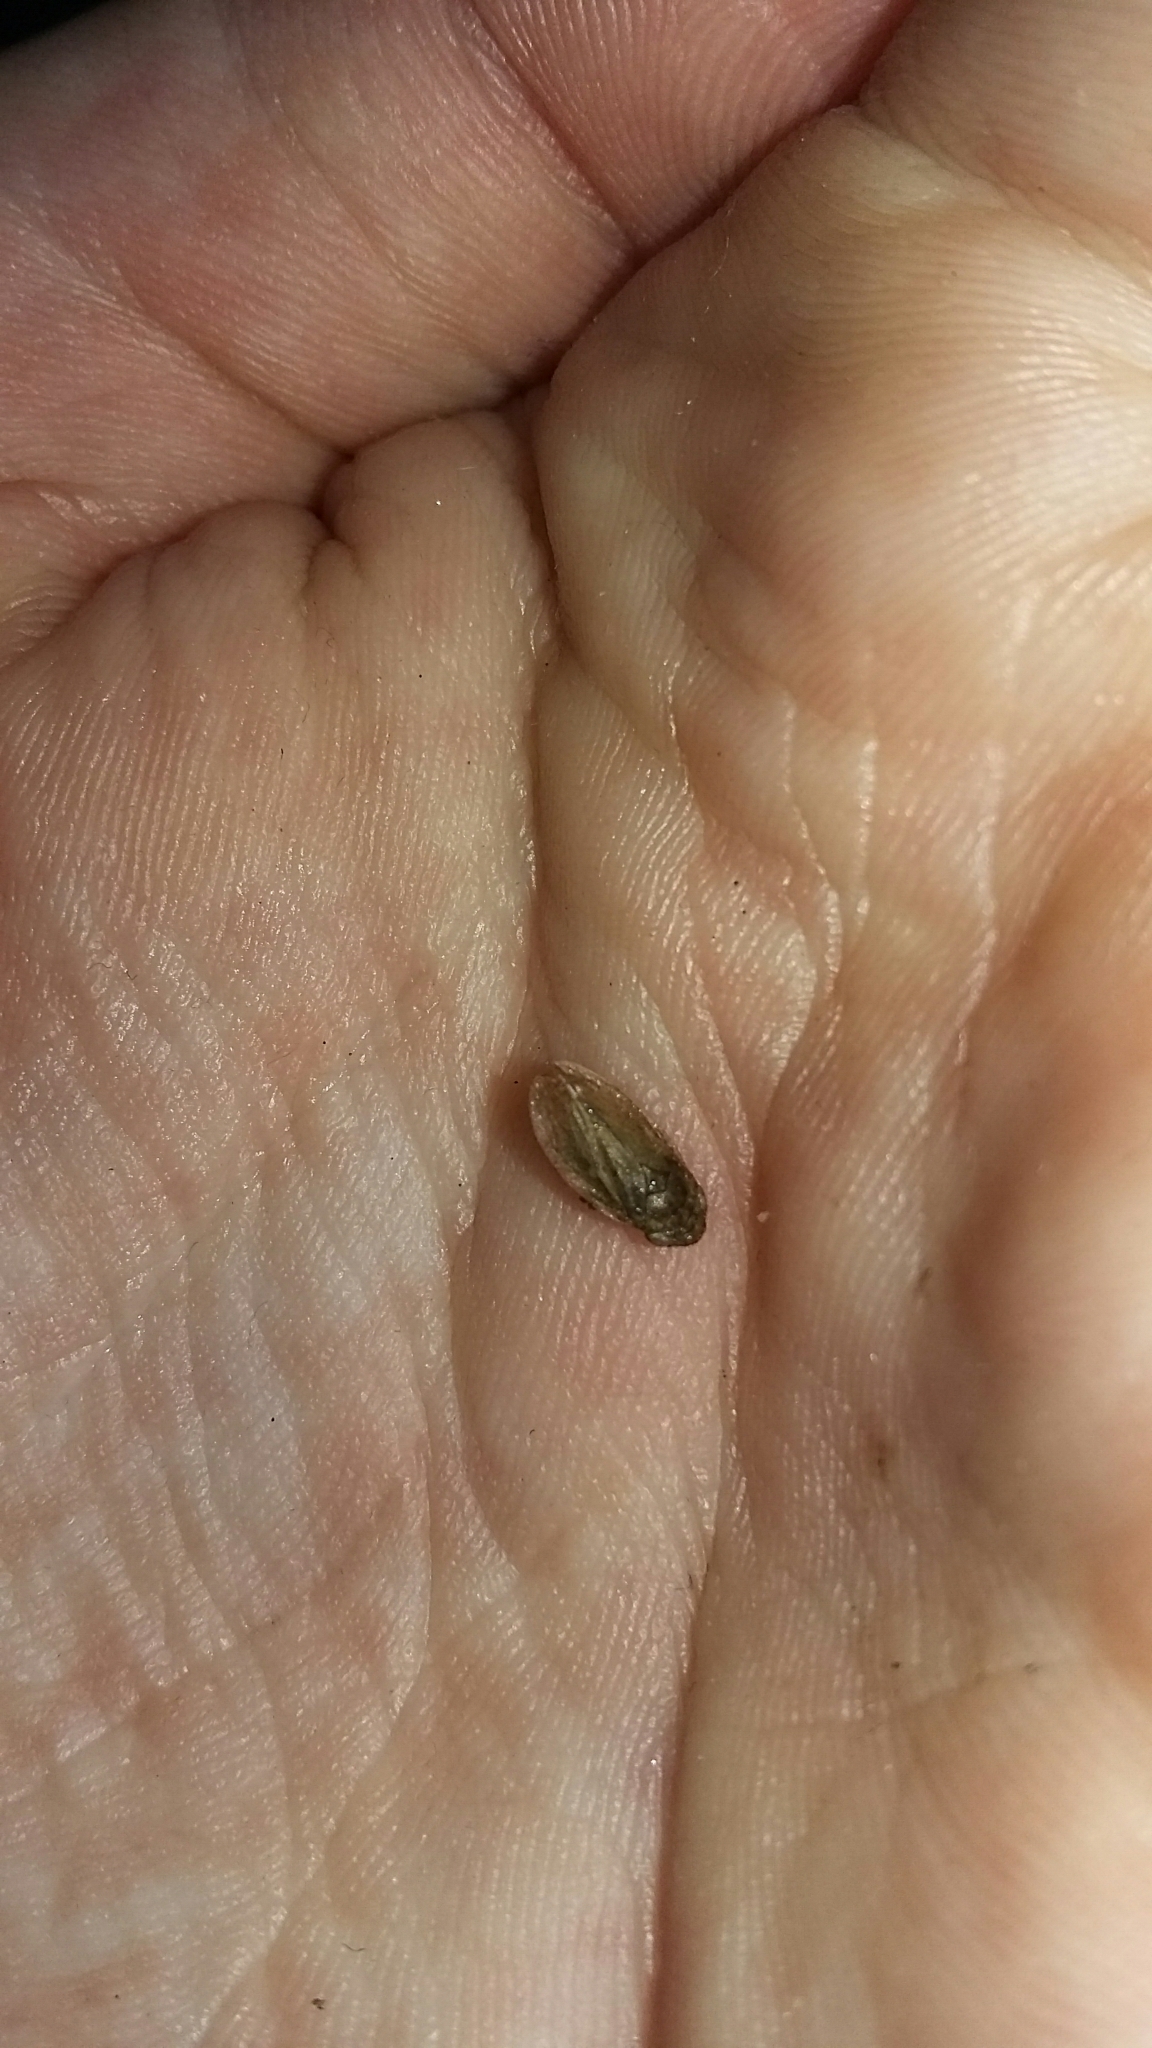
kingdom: Animalia
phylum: Arthropoda
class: Insecta
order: Hemiptera
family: Aphrophoridae
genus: Philaenus
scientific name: Philaenus spumarius
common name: Meadow spittlebug
